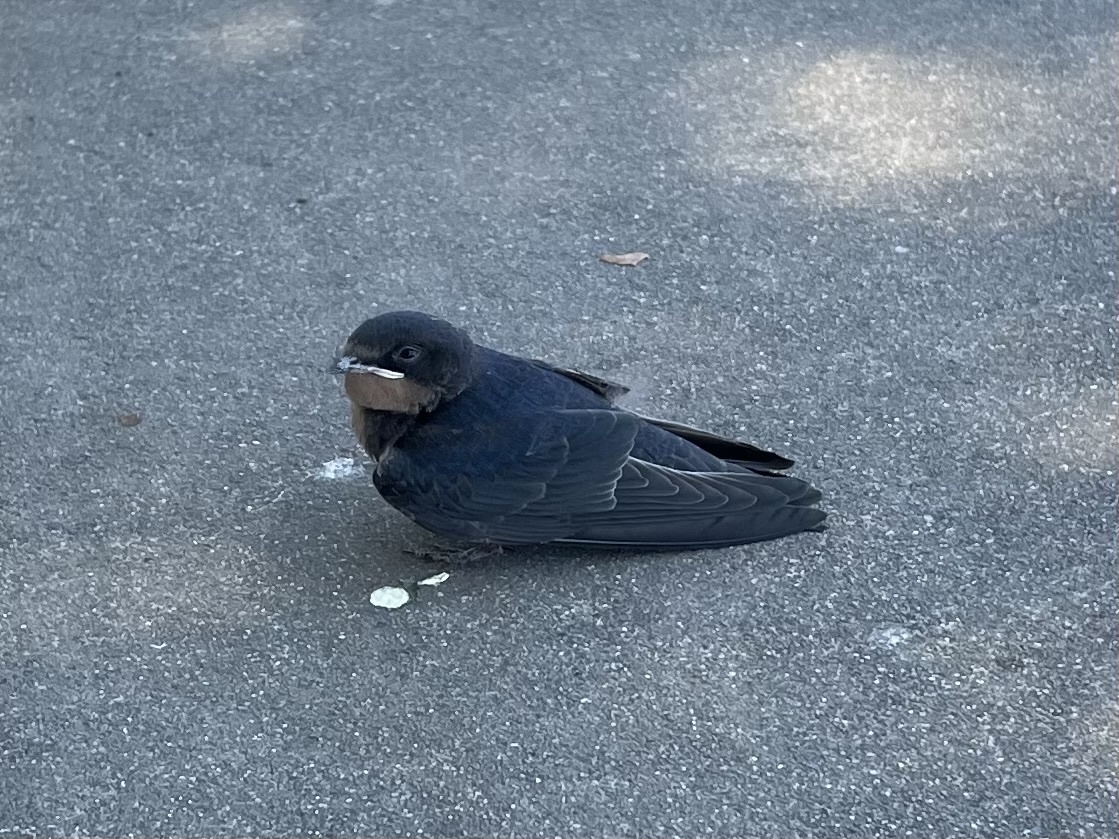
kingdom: Animalia
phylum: Chordata
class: Aves
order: Passeriformes
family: Hirundinidae
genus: Hirundo
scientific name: Hirundo rustica
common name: Barn swallow
